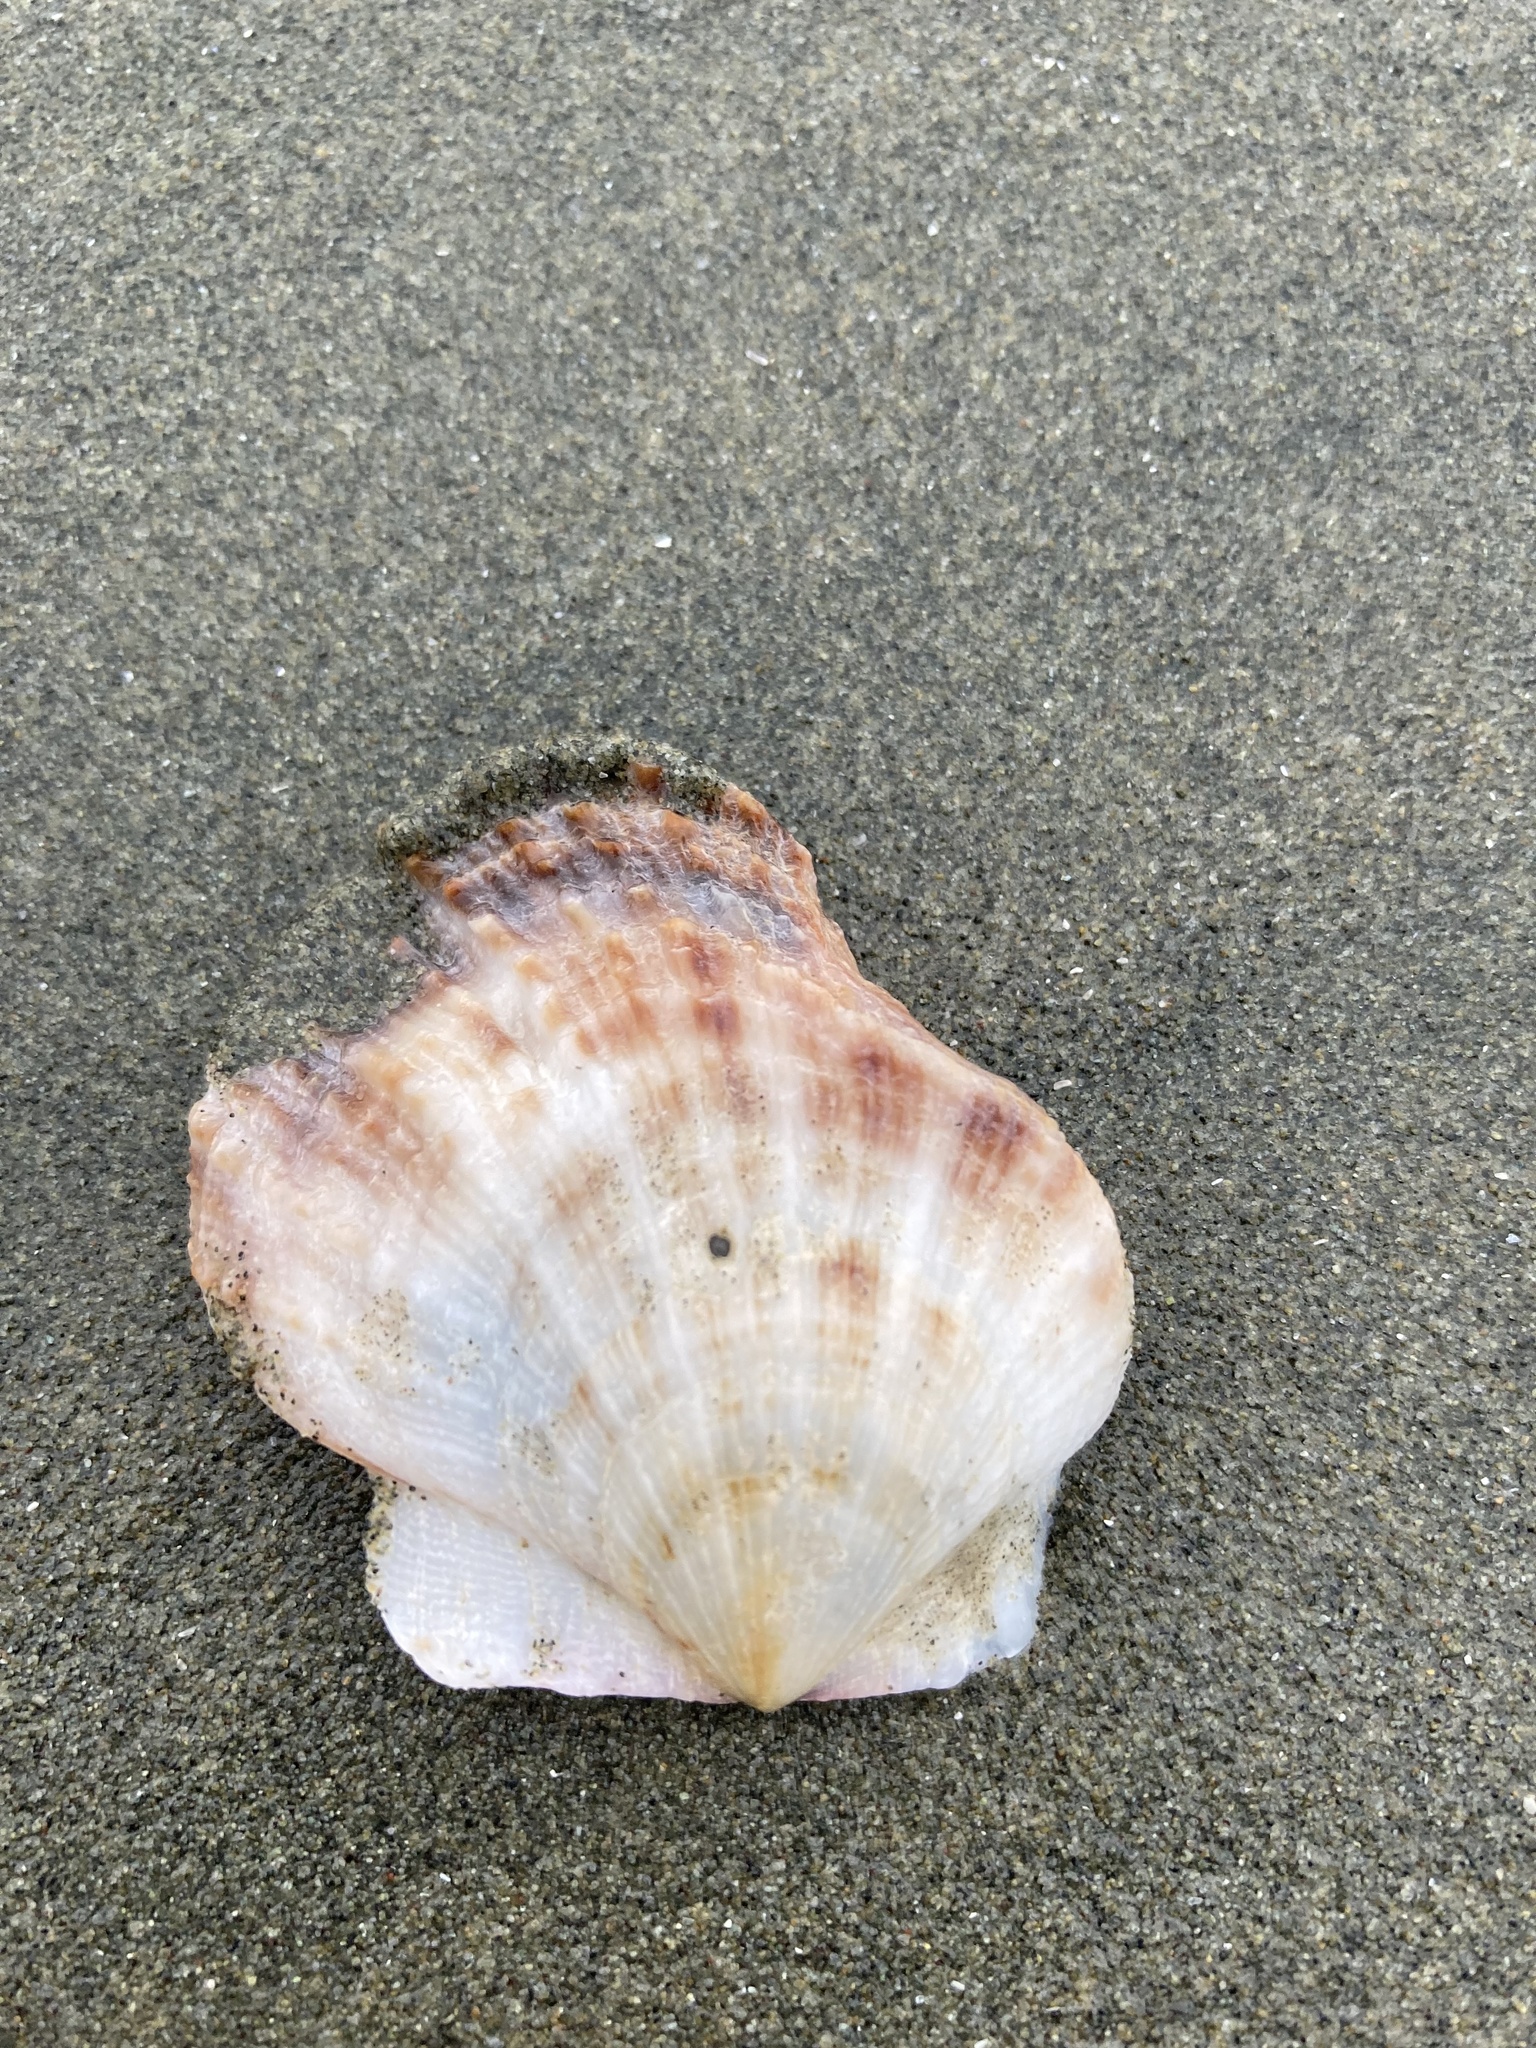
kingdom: Animalia
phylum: Mollusca
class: Bivalvia
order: Pectinida
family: Pectinidae
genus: Crassadoma
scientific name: Crassadoma gigantea
